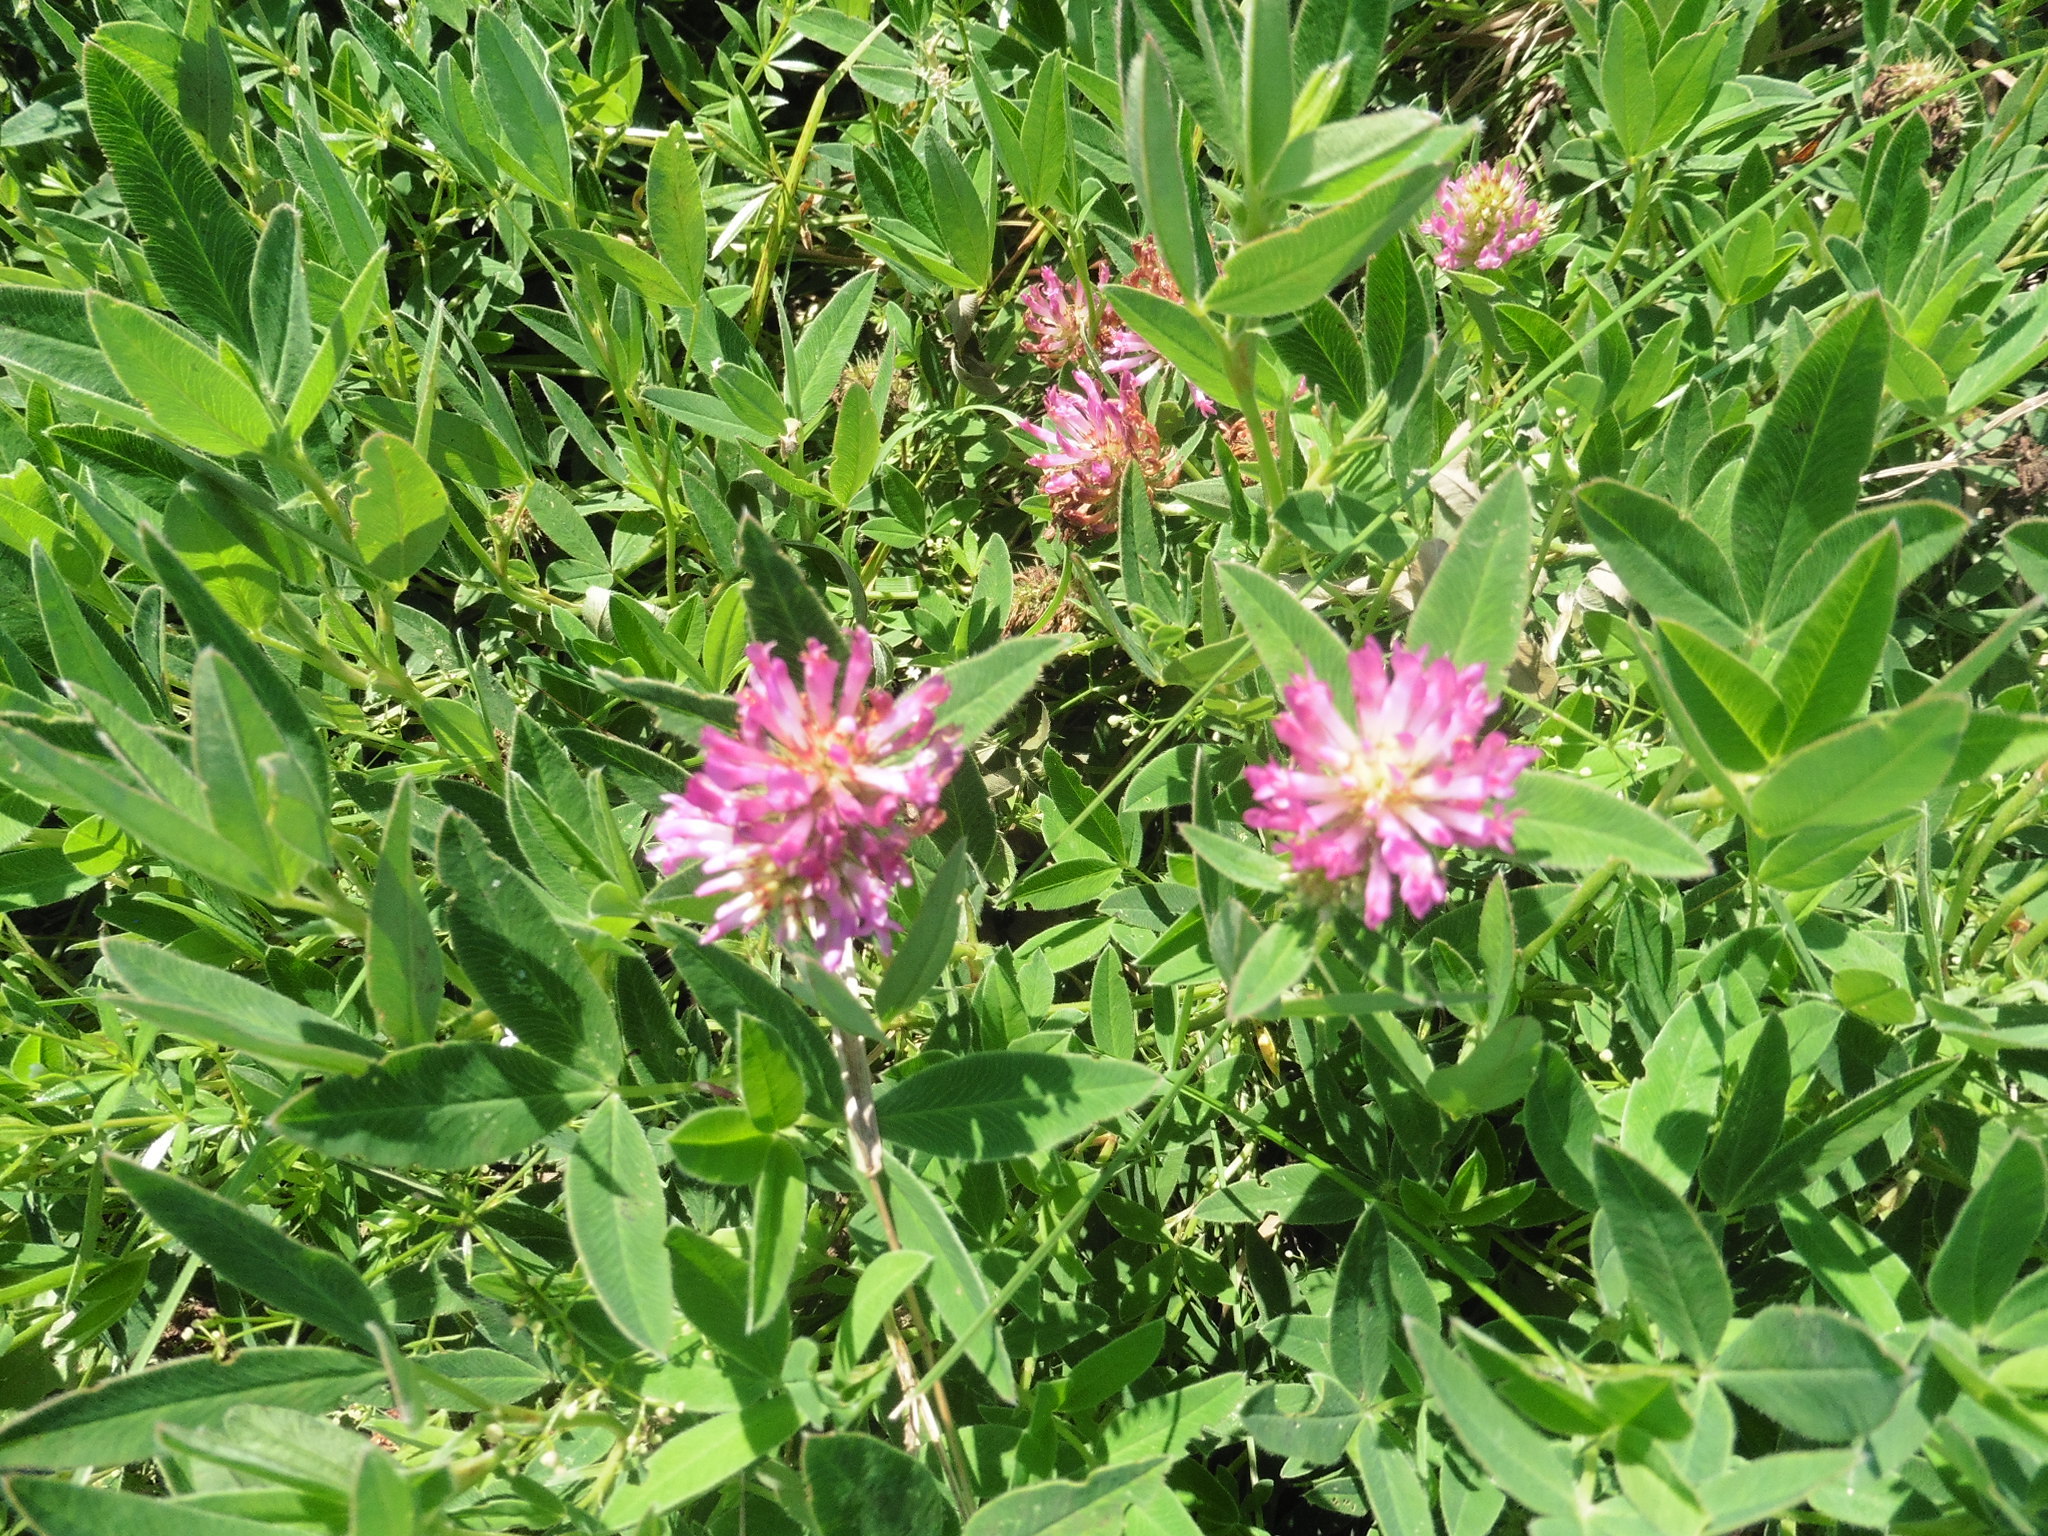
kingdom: Plantae
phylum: Tracheophyta
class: Magnoliopsida
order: Fabales
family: Fabaceae
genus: Trifolium
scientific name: Trifolium medium
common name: Zigzag clover
